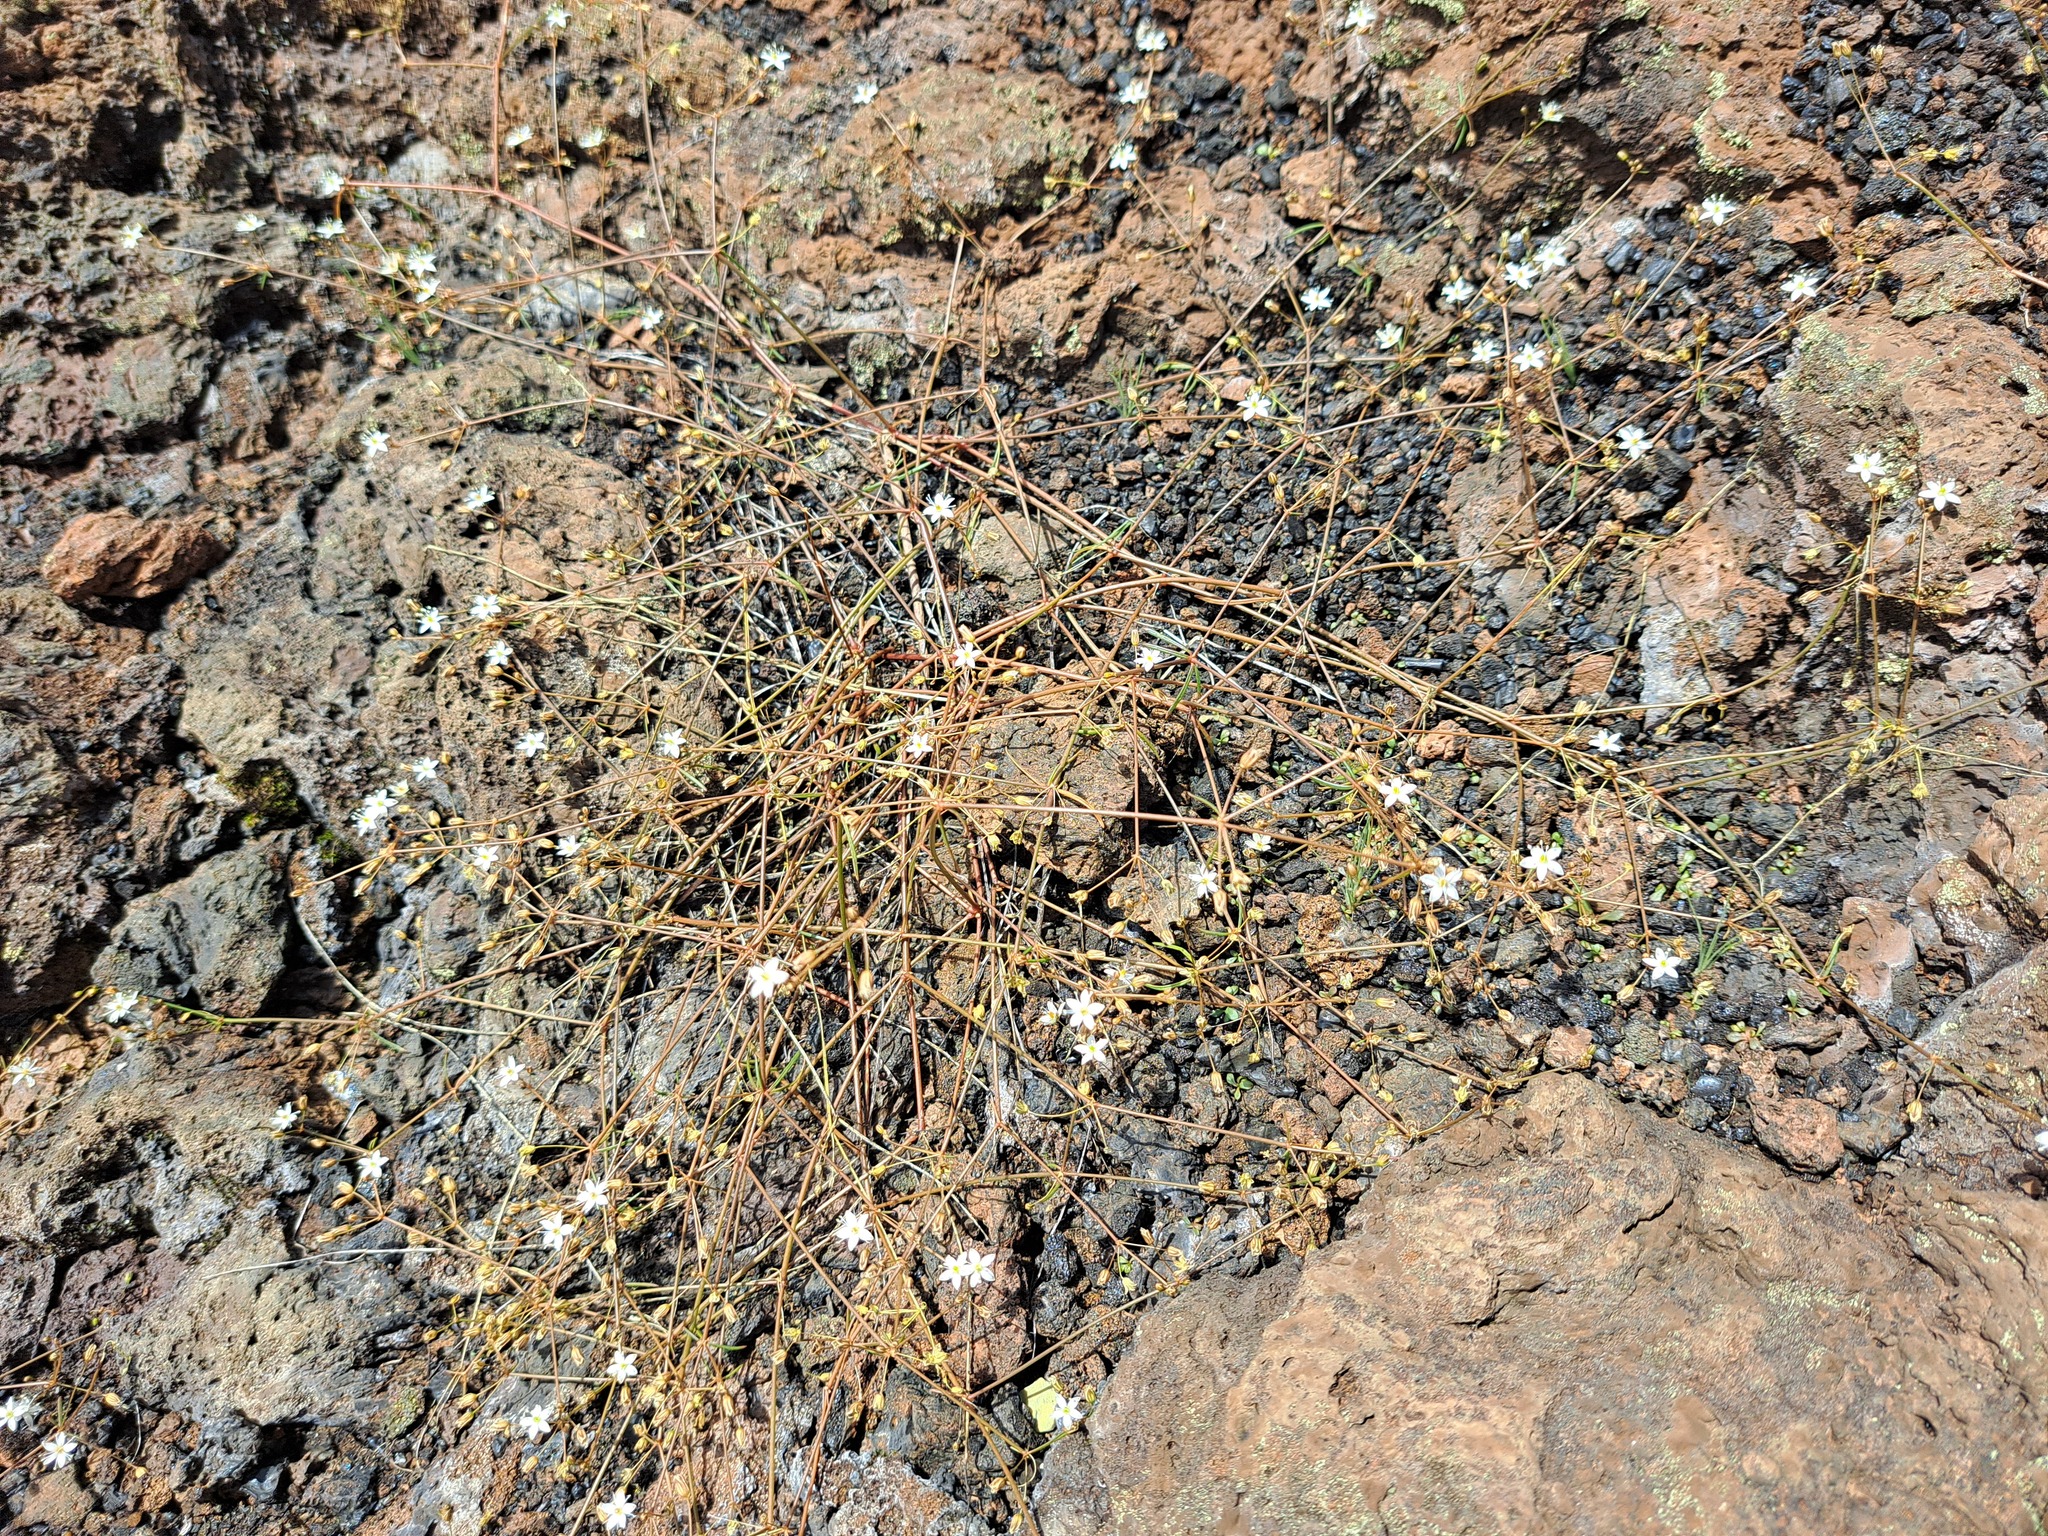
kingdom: Plantae
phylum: Tracheophyta
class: Magnoliopsida
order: Caryophyllales
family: Molluginaceae
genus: Mollugo
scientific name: Mollugo snodgrassii
